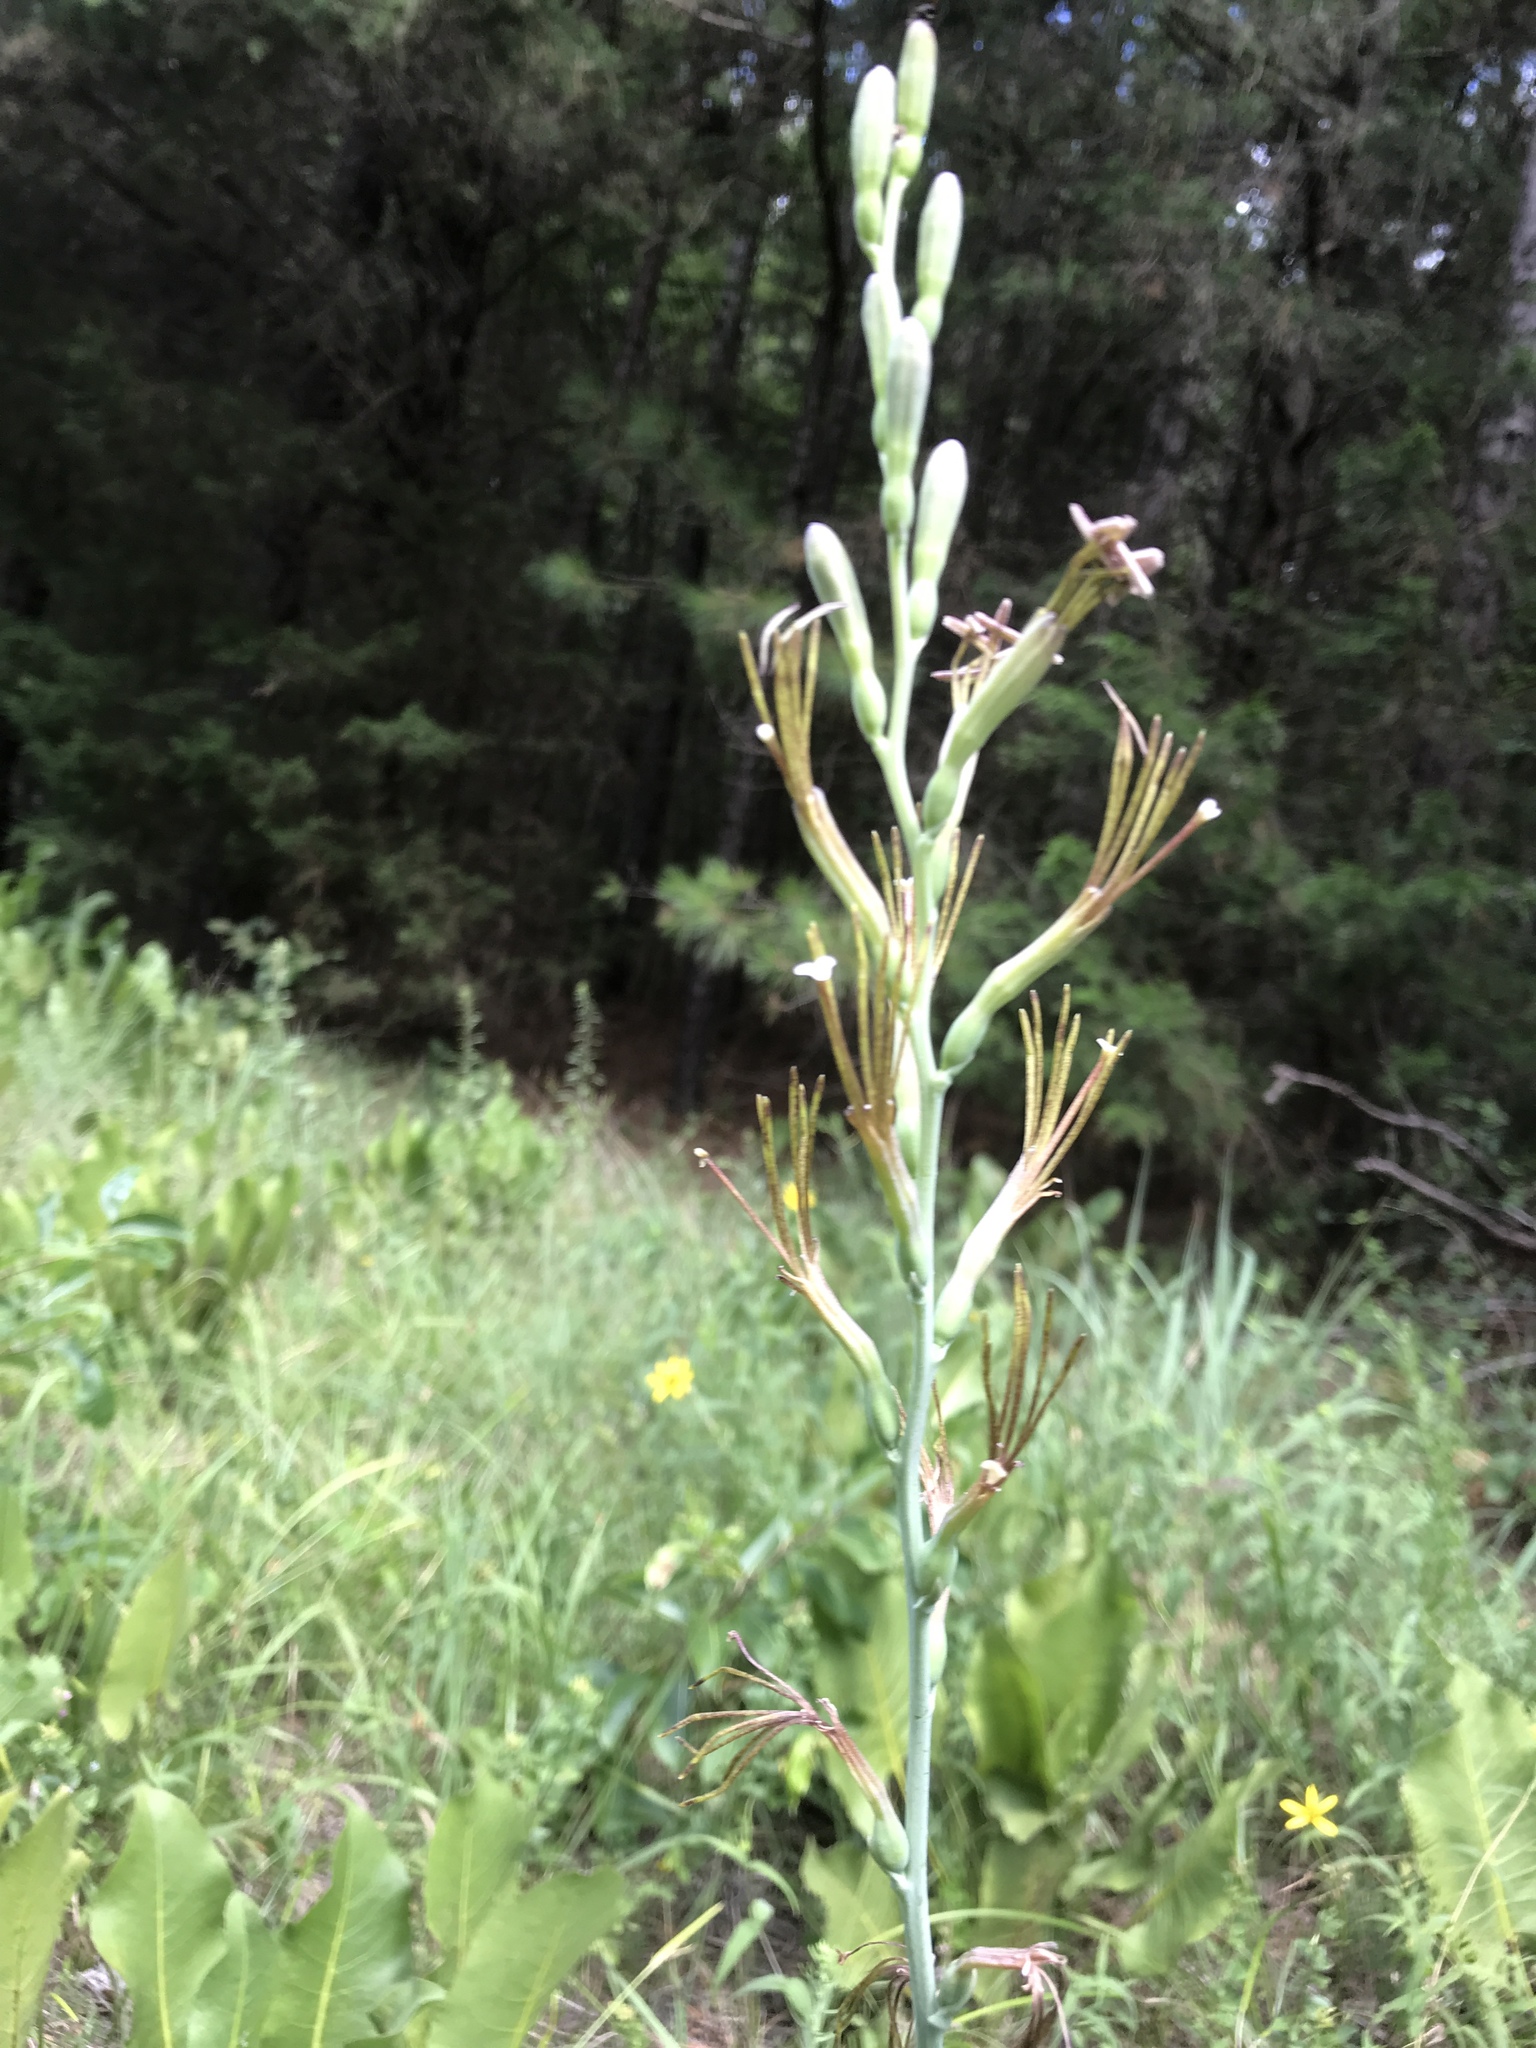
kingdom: Plantae
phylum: Tracheophyta
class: Liliopsida
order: Asparagales
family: Asparagaceae
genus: Agave
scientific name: Agave virginica
